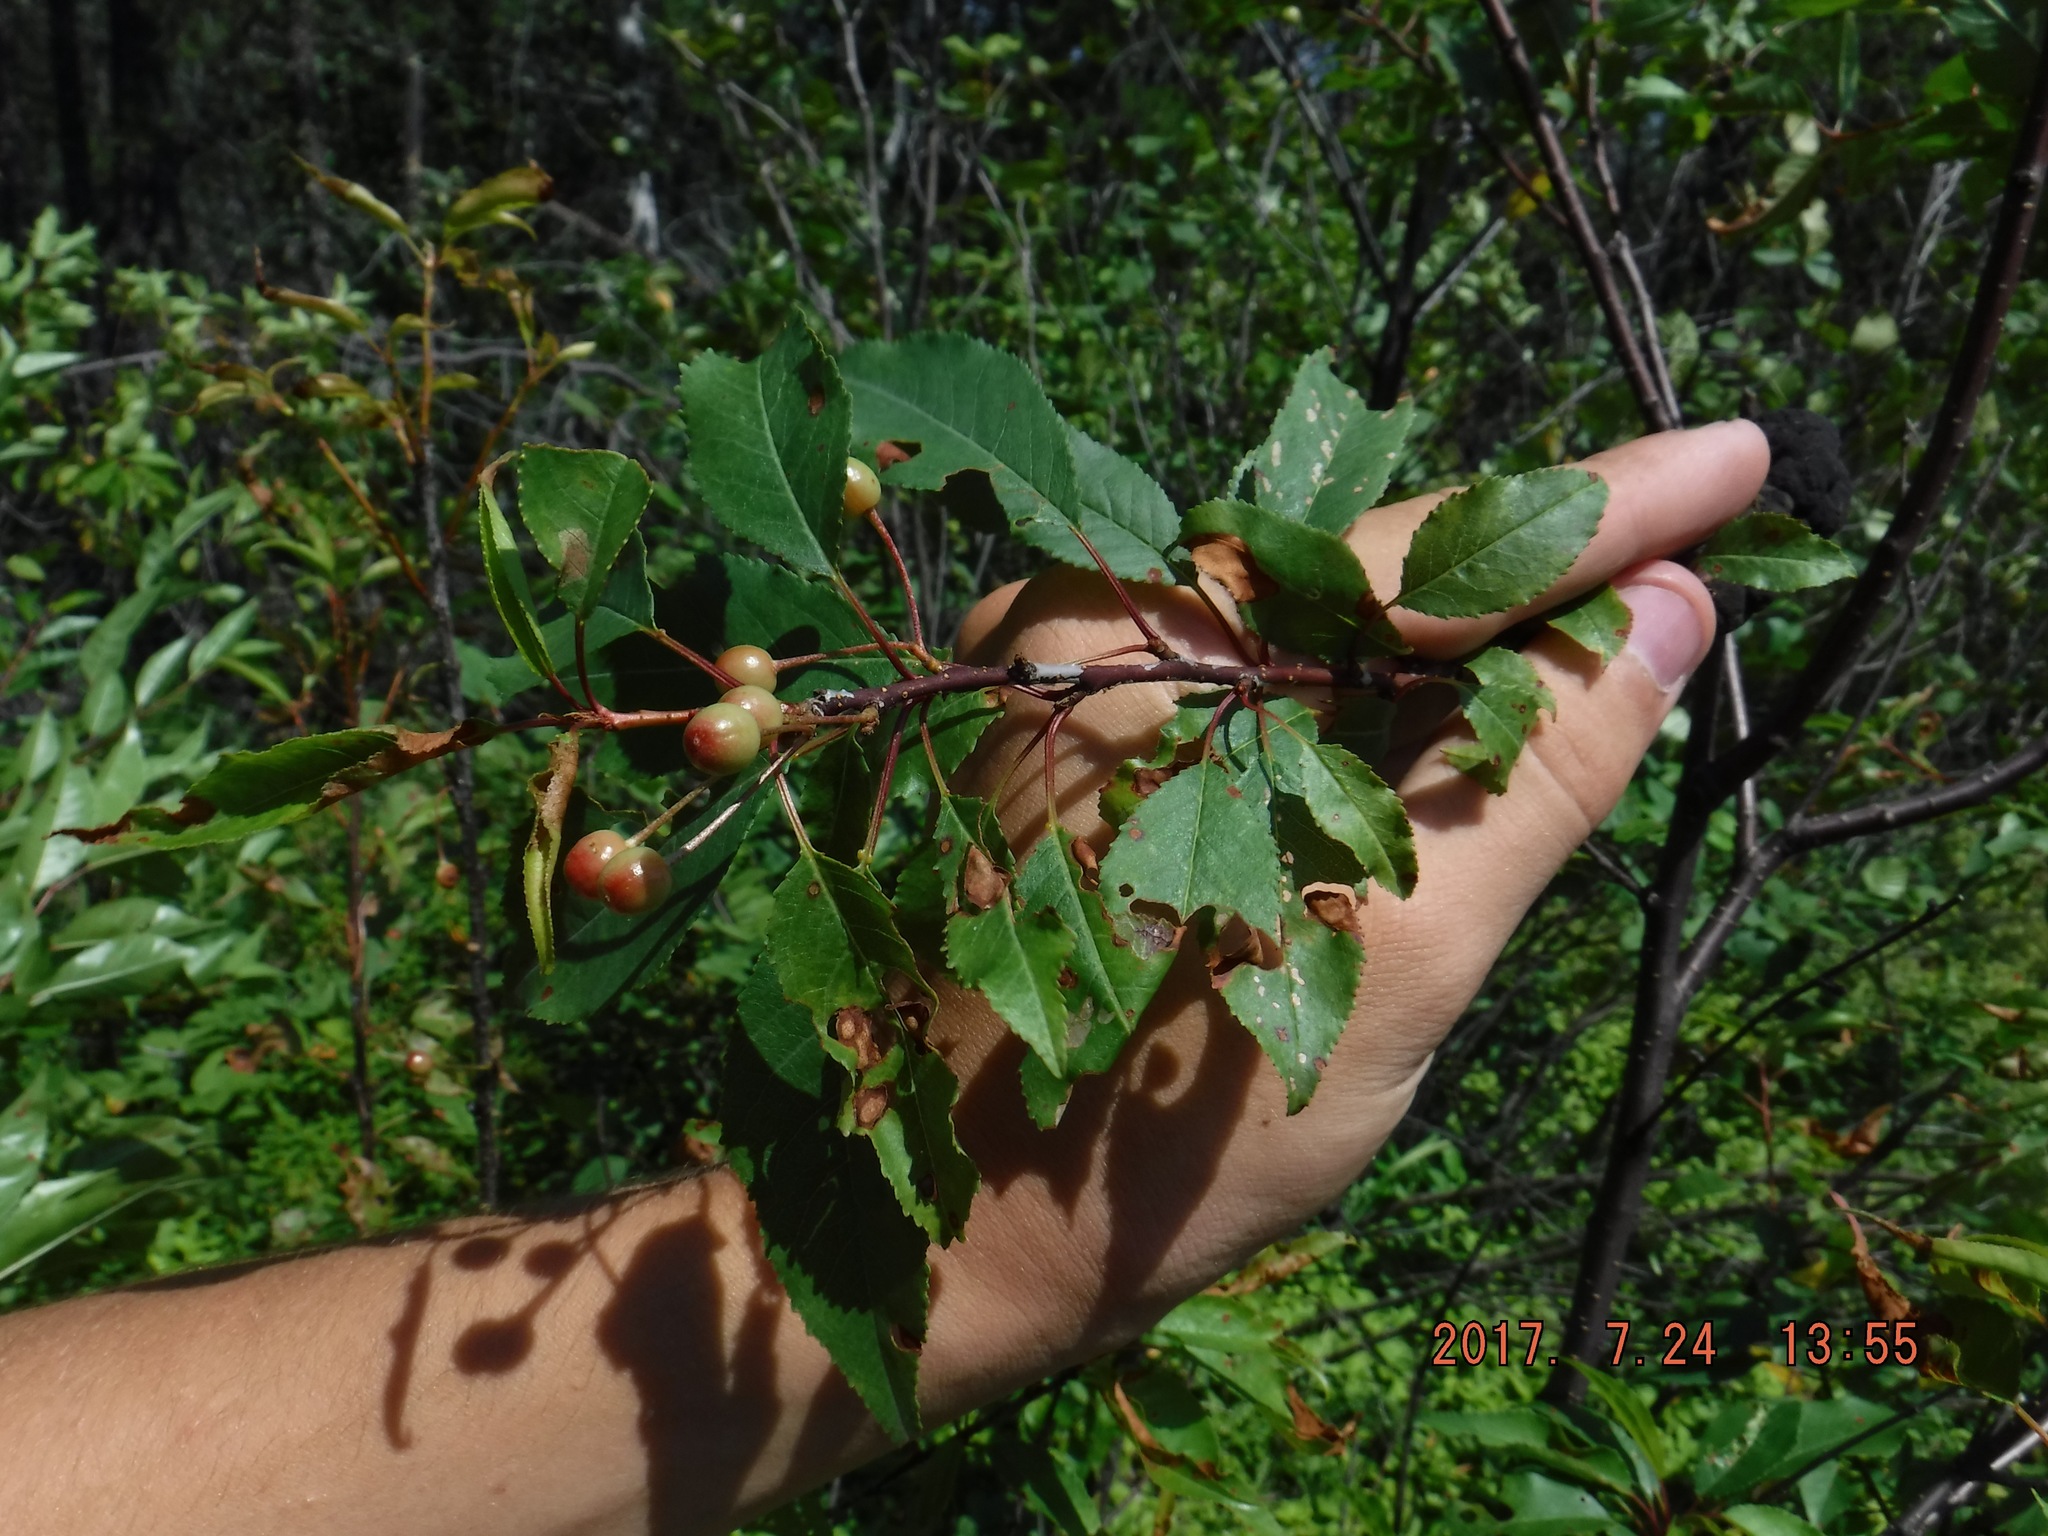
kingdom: Plantae
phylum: Tracheophyta
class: Magnoliopsida
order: Rosales
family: Rosaceae
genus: Prunus
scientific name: Prunus pensylvanica
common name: Pin cherry
